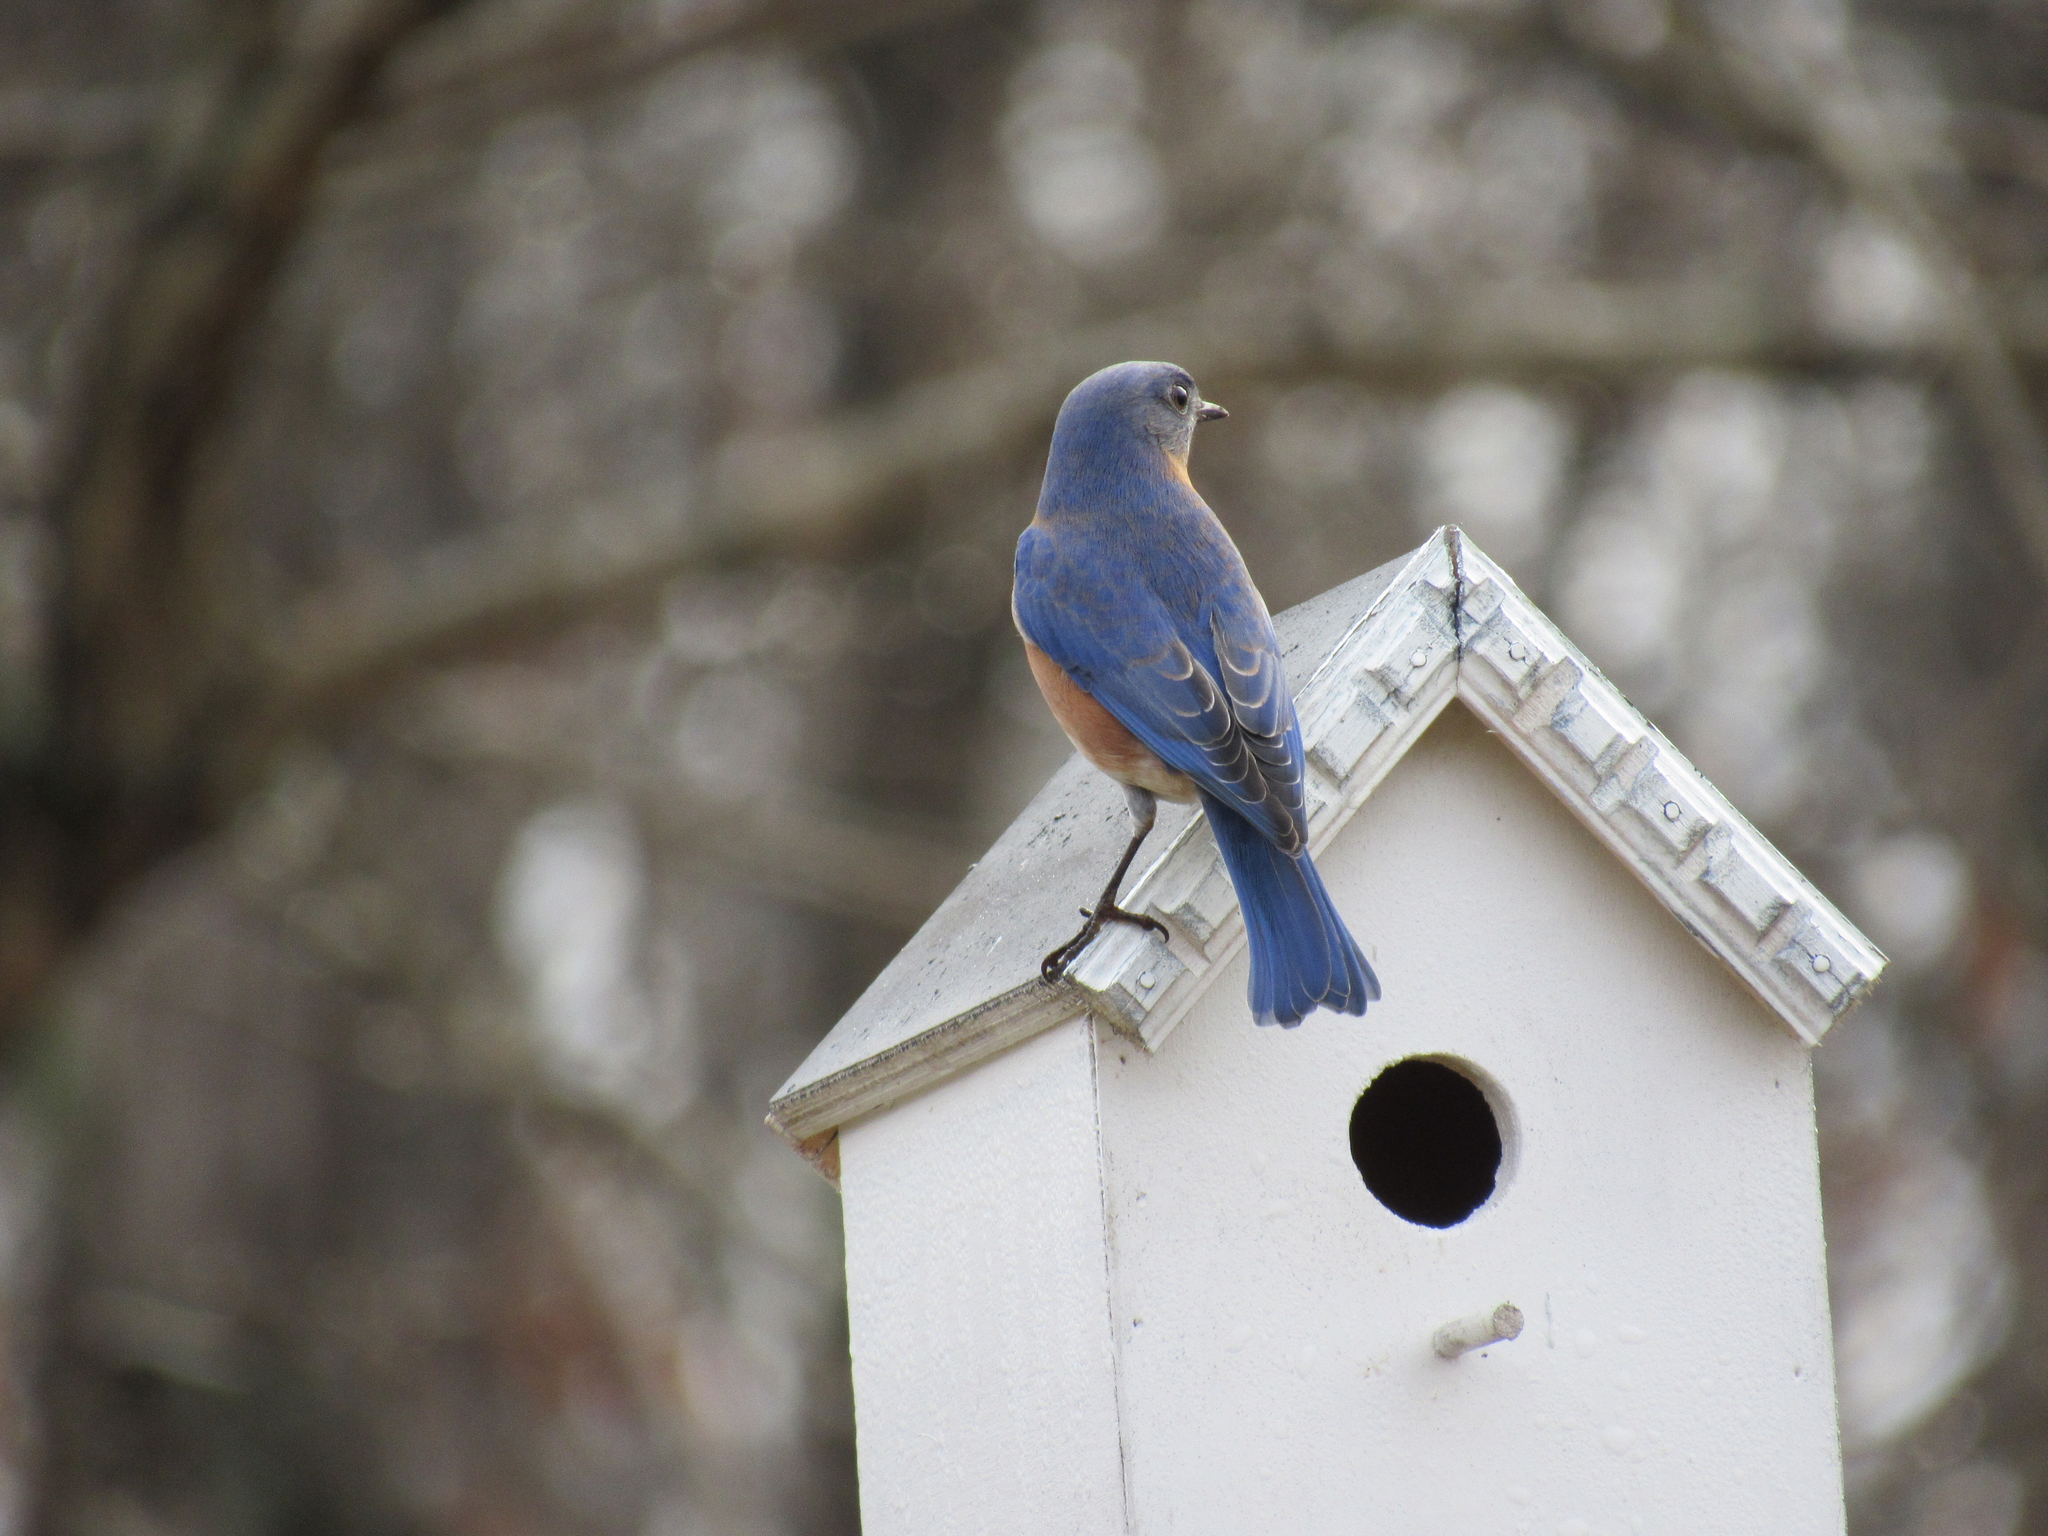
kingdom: Animalia
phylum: Chordata
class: Aves
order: Passeriformes
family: Turdidae
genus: Sialia
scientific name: Sialia sialis
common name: Eastern bluebird
